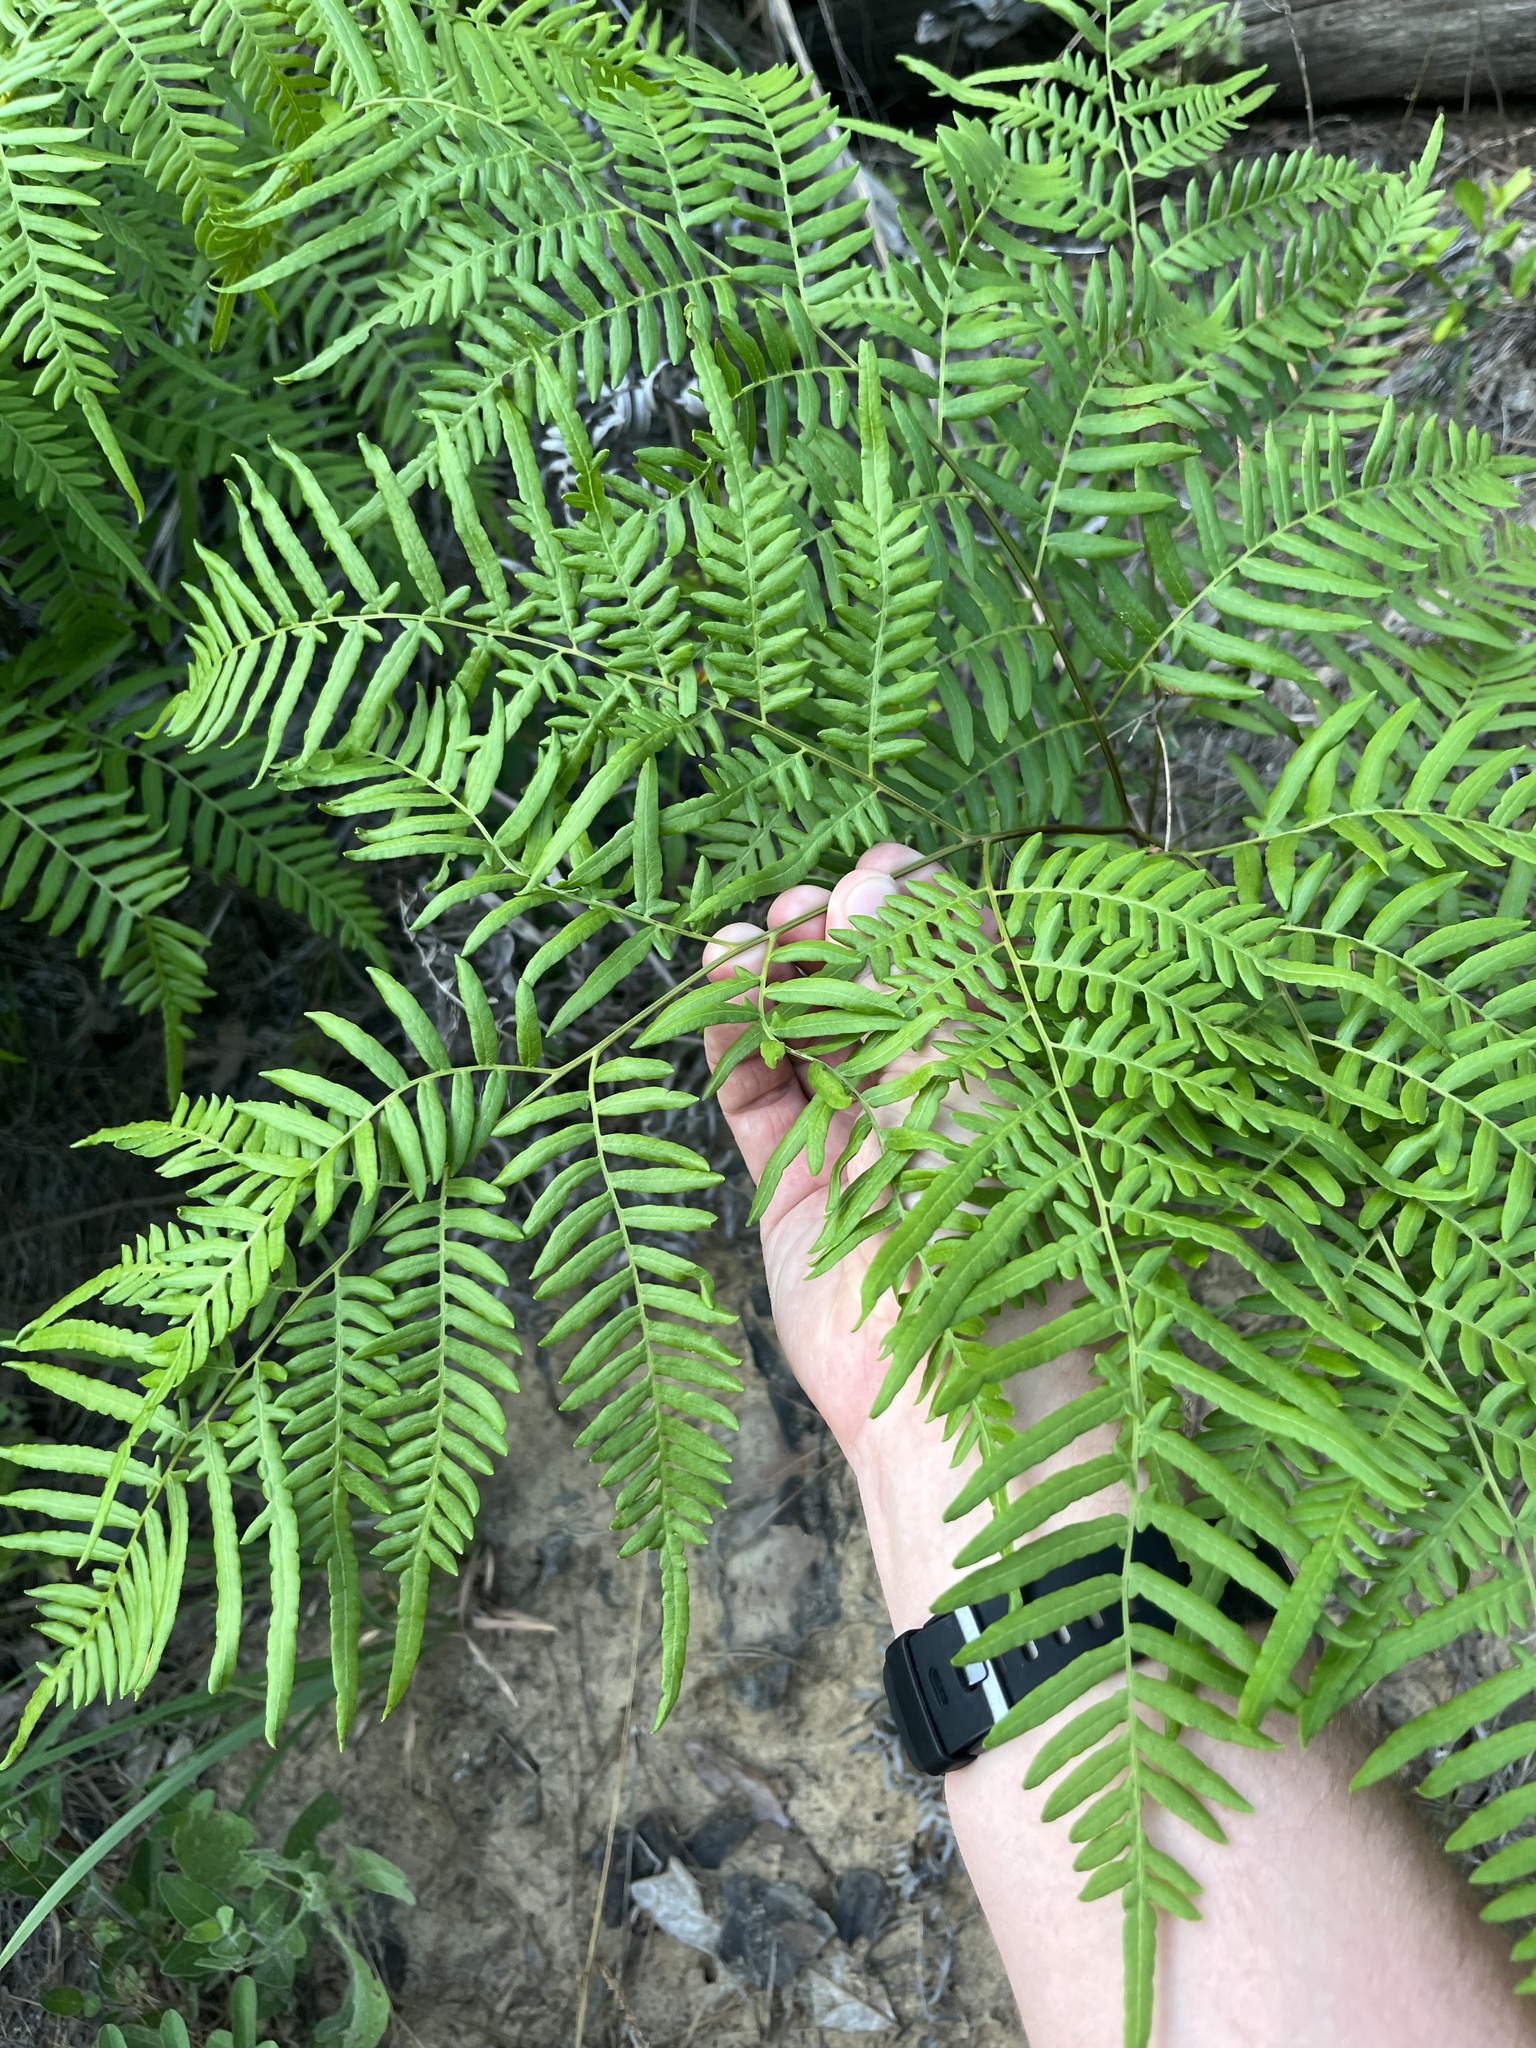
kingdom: Plantae
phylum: Tracheophyta
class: Polypodiopsida
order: Polypodiales
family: Dennstaedtiaceae
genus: Pteridium
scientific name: Pteridium aquilinum
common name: Bracken
